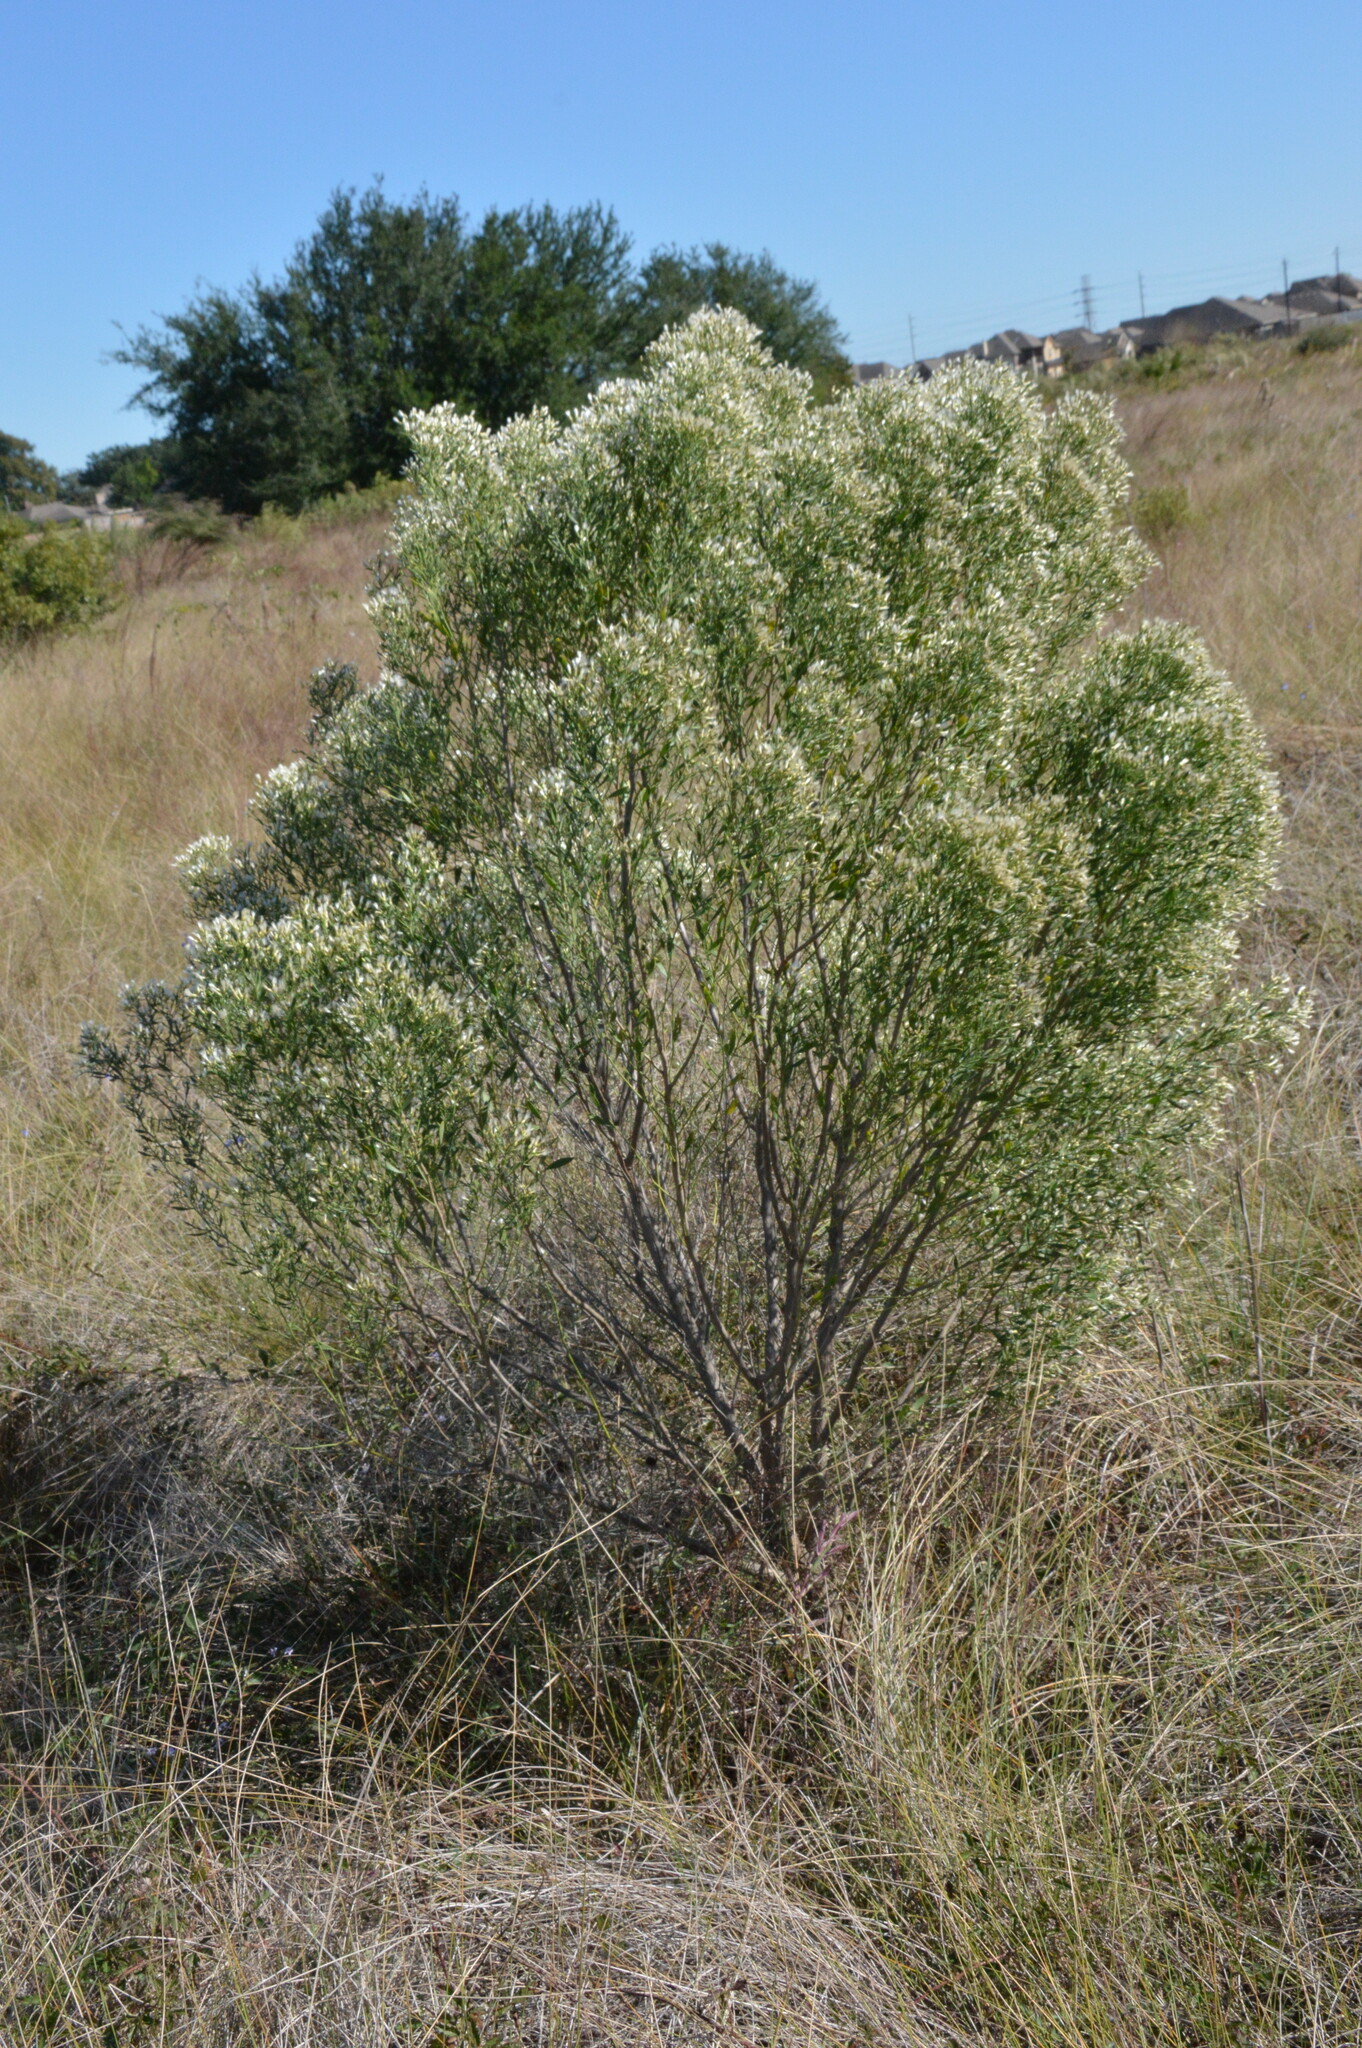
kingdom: Plantae
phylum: Tracheophyta
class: Magnoliopsida
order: Asterales
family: Asteraceae
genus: Baccharis
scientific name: Baccharis halimifolia
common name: Eastern baccharis
